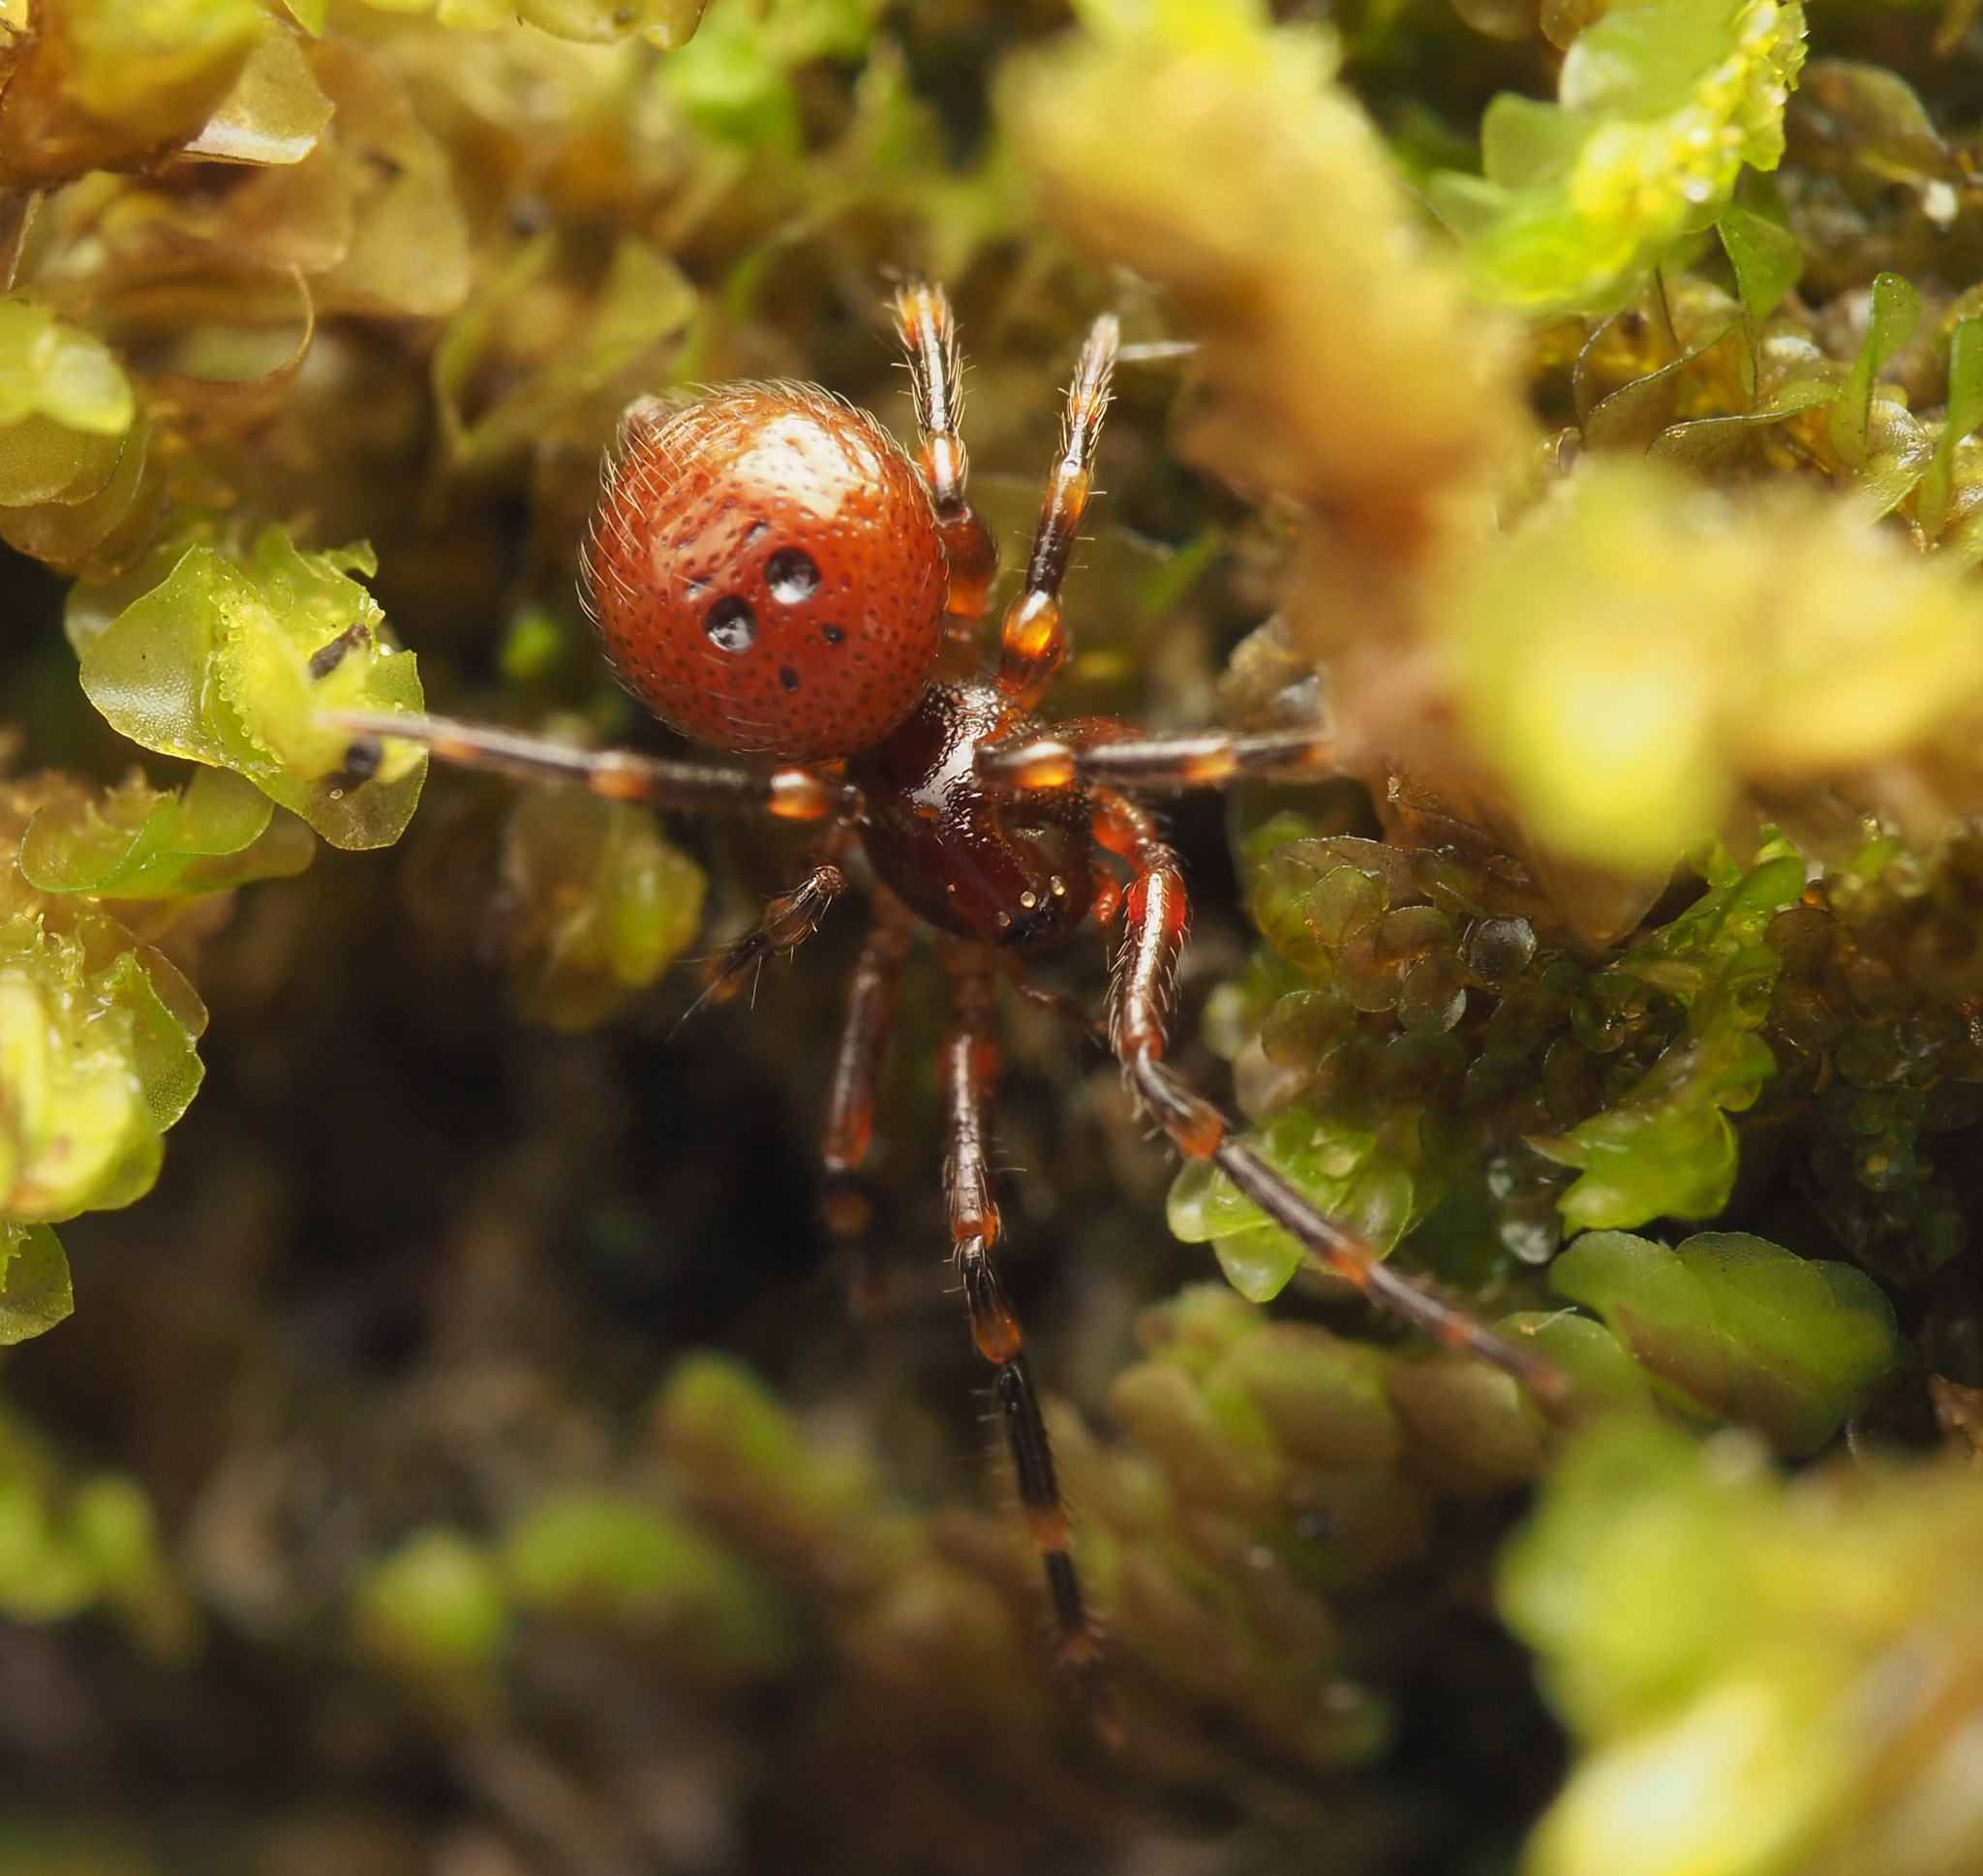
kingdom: Animalia
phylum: Arthropoda
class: Arachnida
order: Araneae
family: Malkaridae
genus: Malkara
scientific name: Malkara
